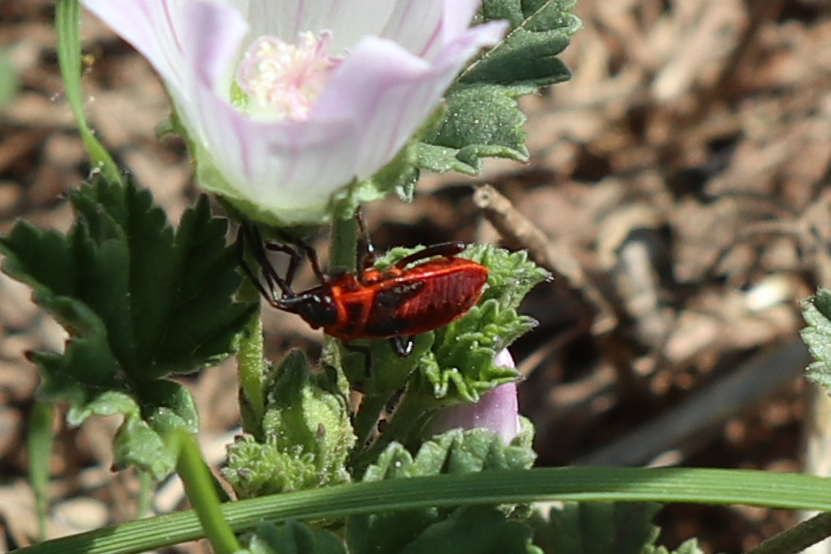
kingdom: Animalia
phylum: Arthropoda
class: Insecta
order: Hemiptera
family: Pyrrhocoridae
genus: Pyrrhocoris
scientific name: Pyrrhocoris apterus
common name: Firebug
